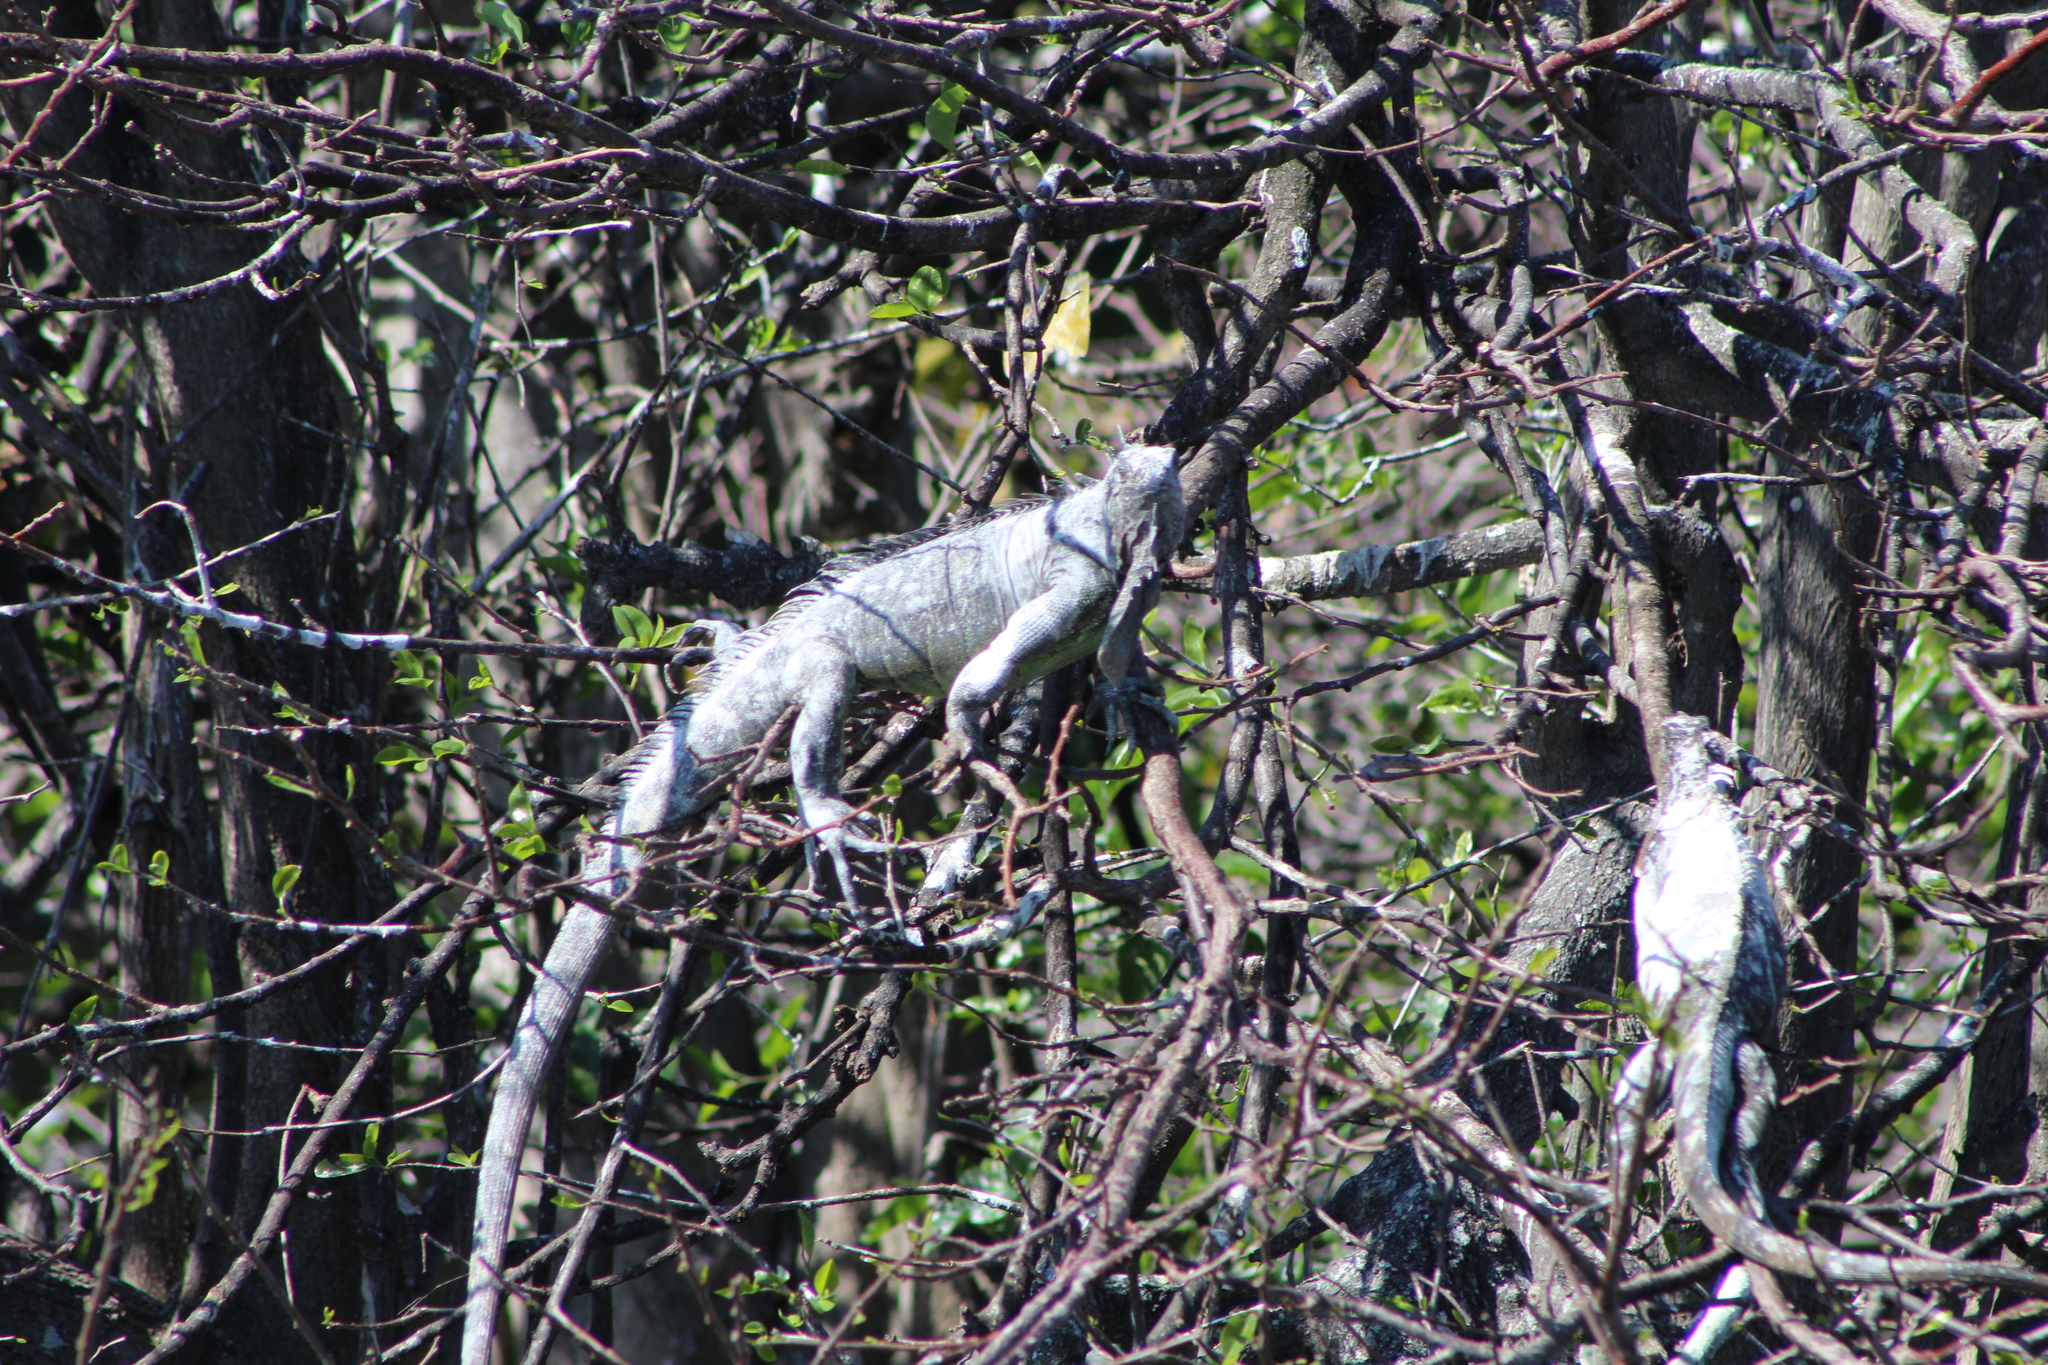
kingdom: Animalia
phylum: Chordata
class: Squamata
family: Iguanidae
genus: Iguana
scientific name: Iguana iguana
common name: Green iguana
